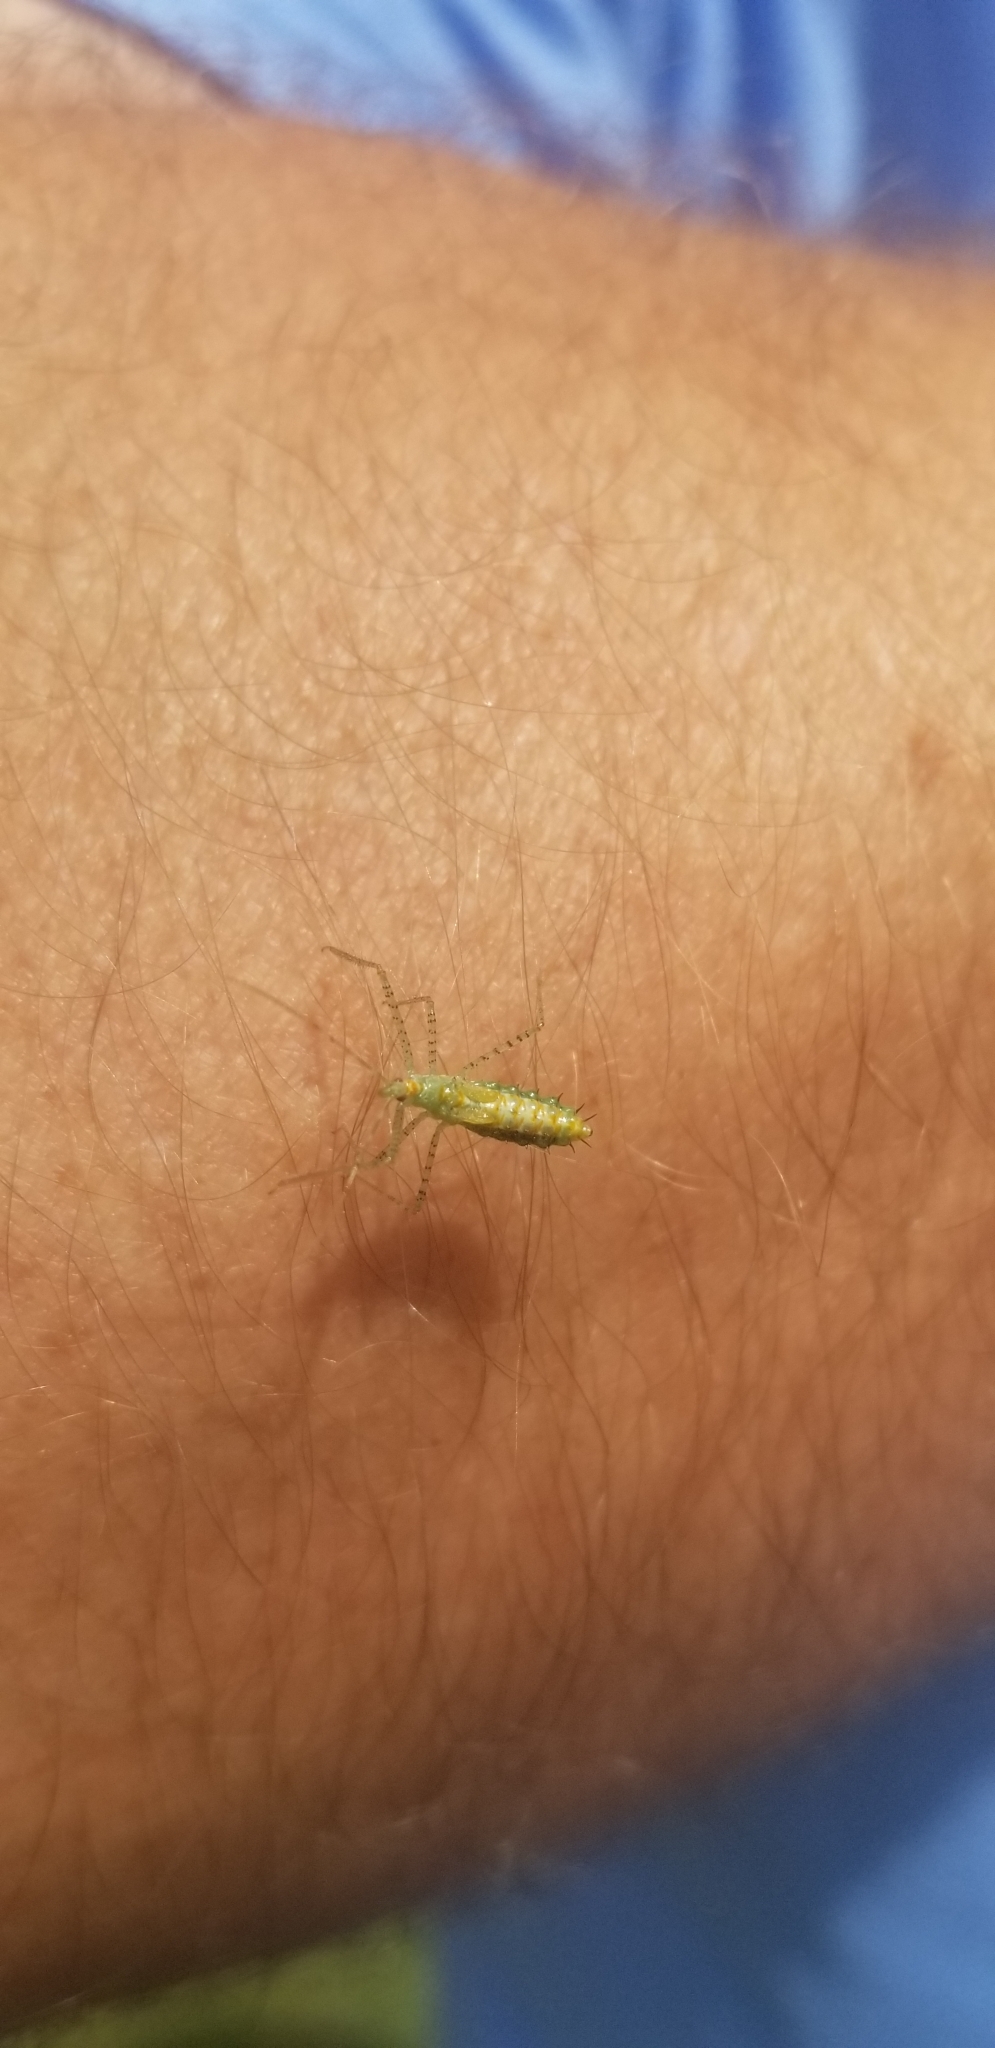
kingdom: Animalia
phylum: Arthropoda
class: Insecta
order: Hemiptera
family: Reduviidae
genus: Zelus
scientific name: Zelus renardii
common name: Assassin bug
